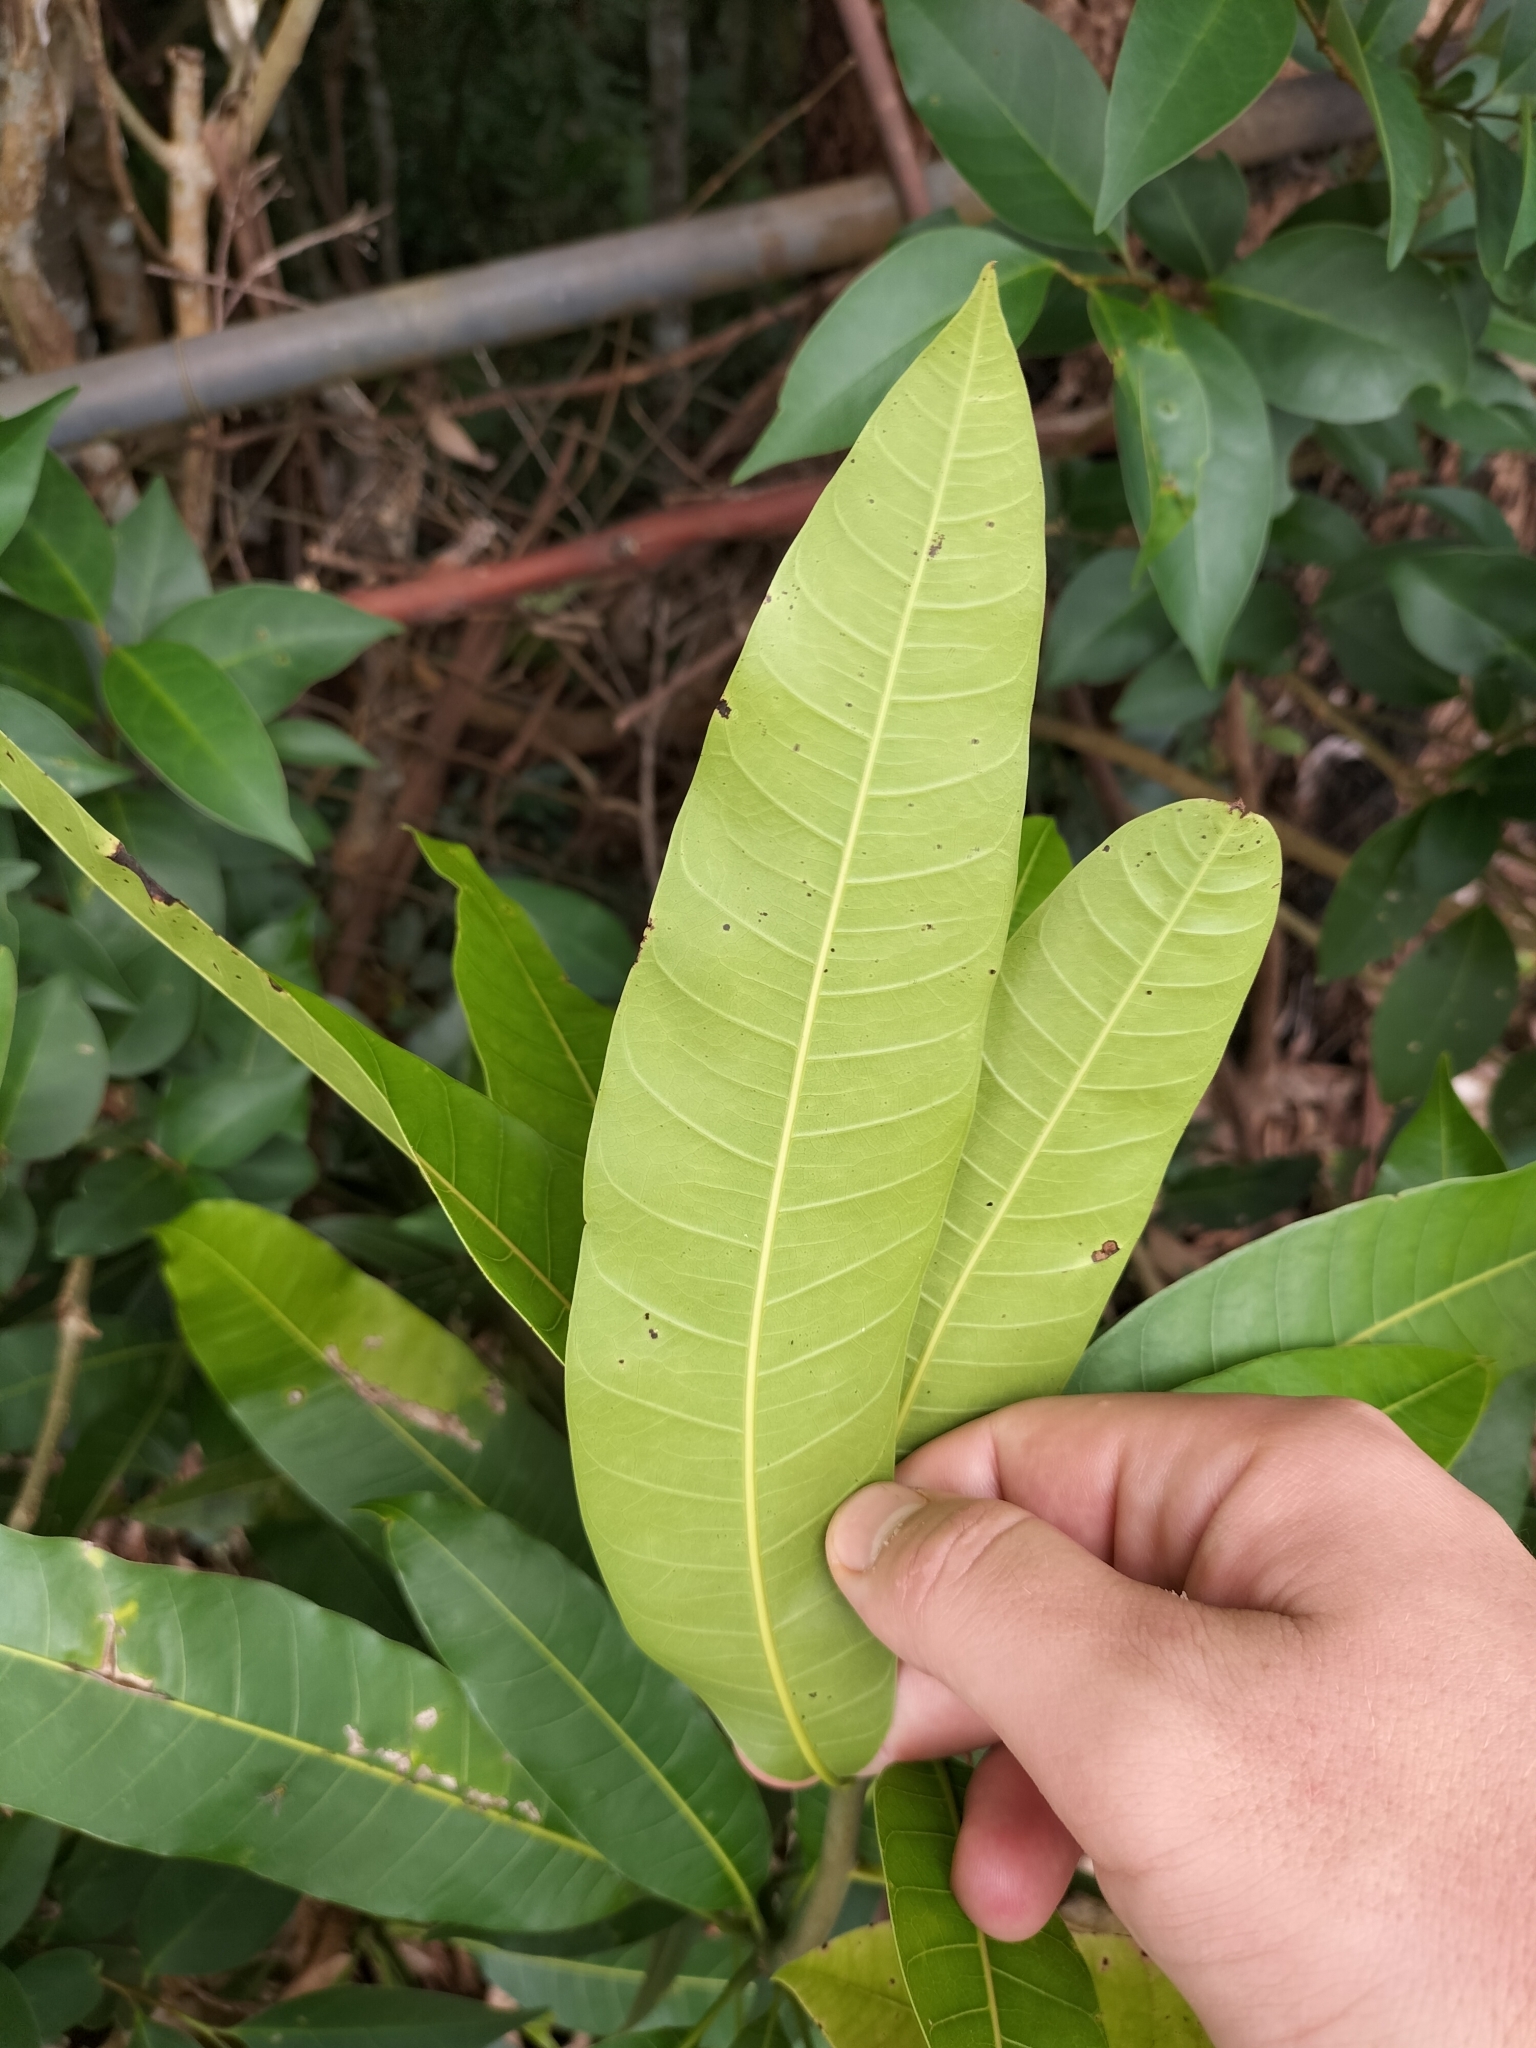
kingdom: Plantae
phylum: Tracheophyta
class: Magnoliopsida
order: Sapindales
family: Anacardiaceae
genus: Mangifera
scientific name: Mangifera indica
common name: Mango
